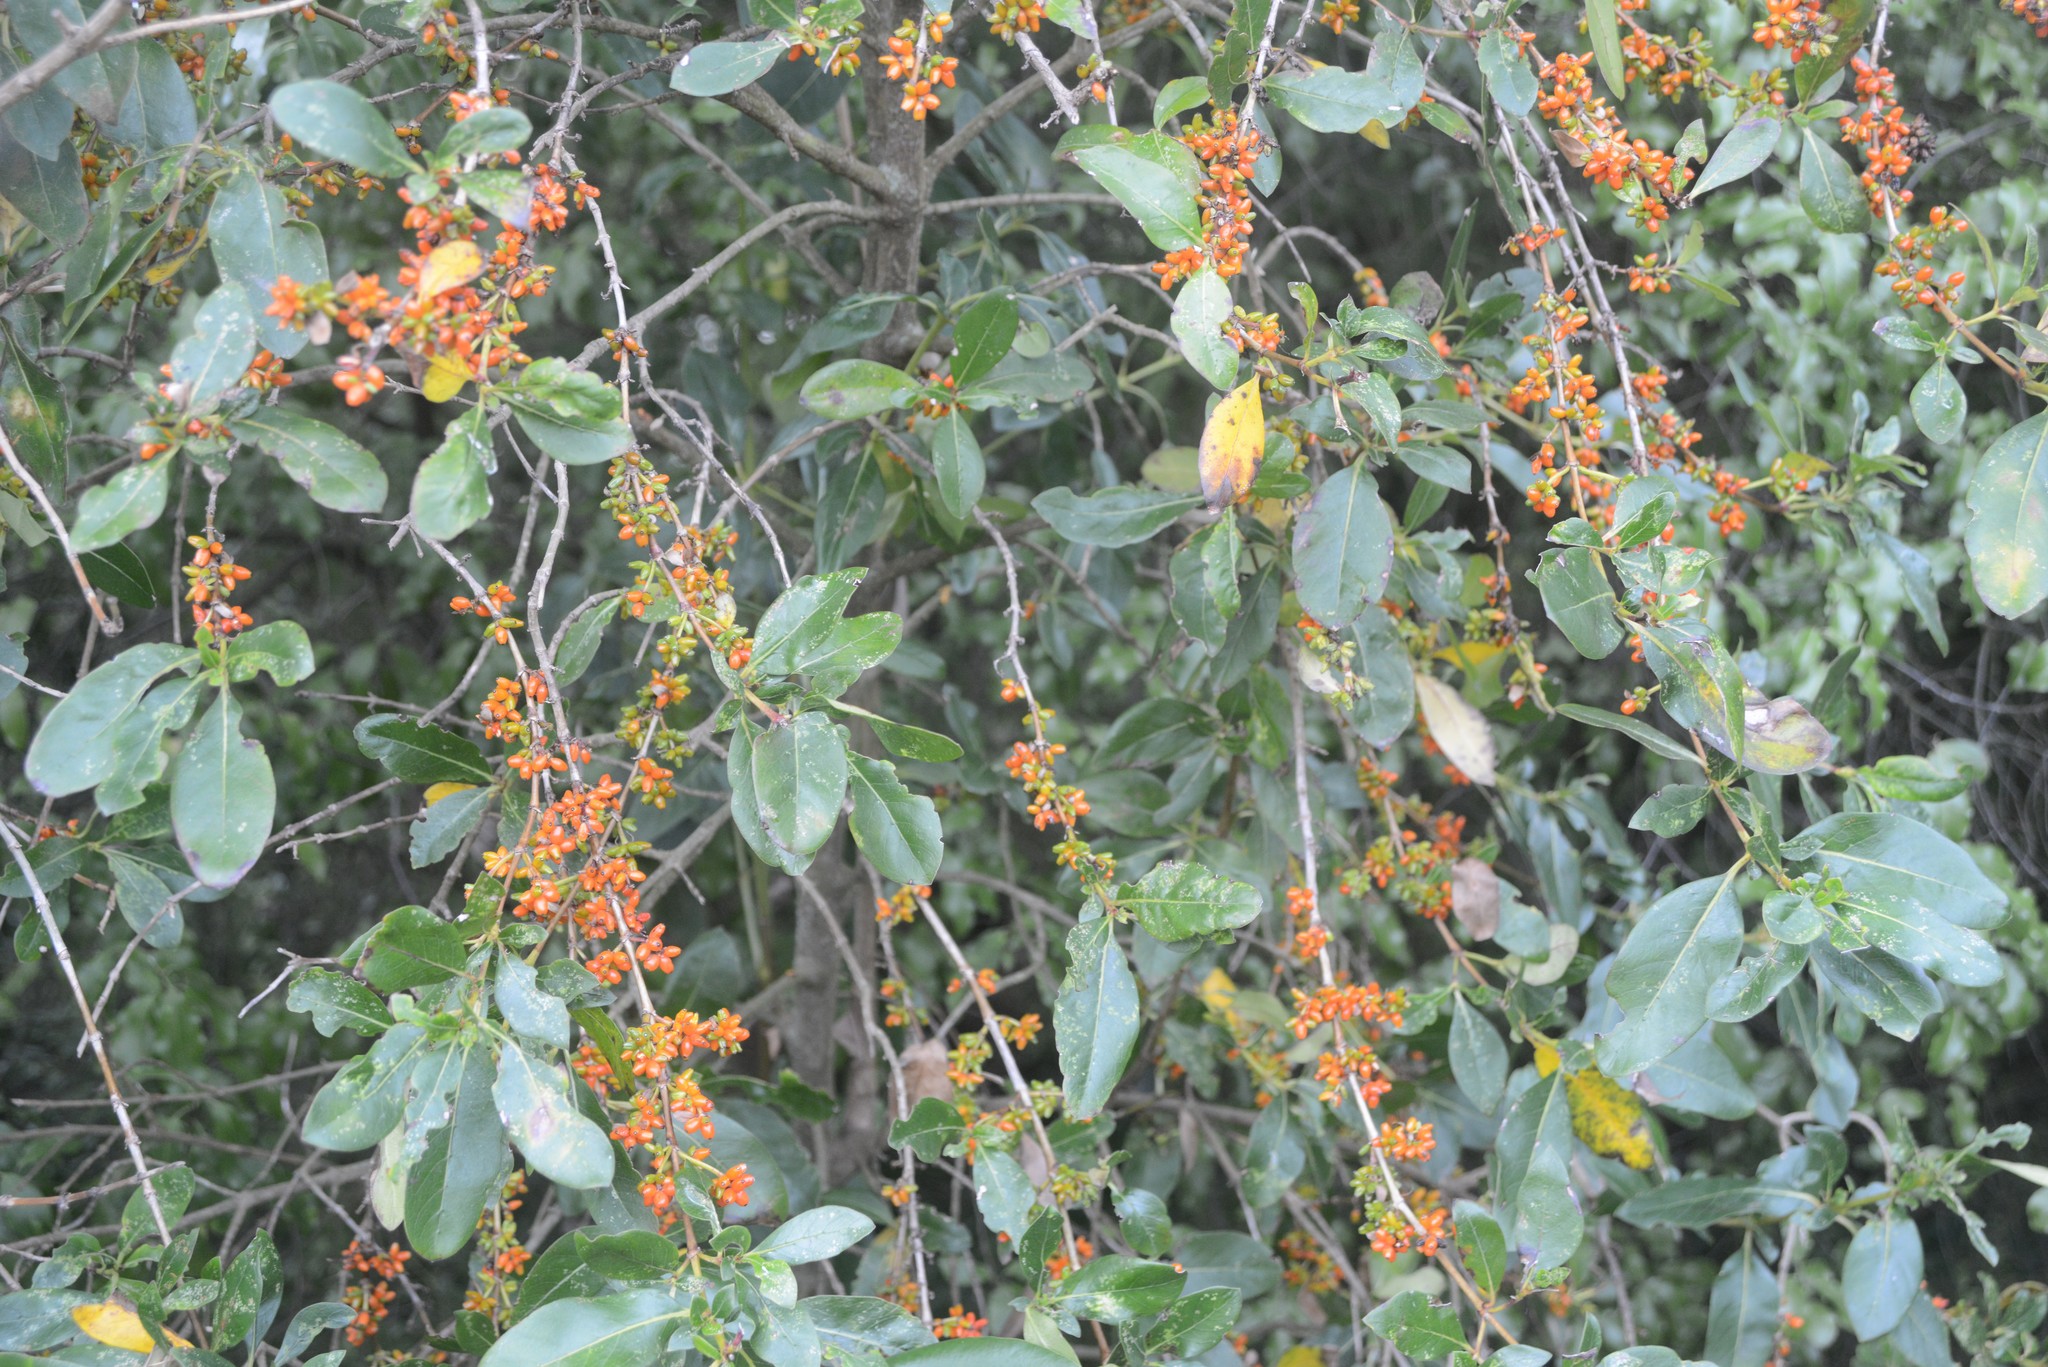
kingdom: Plantae
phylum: Tracheophyta
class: Magnoliopsida
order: Gentianales
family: Rubiaceae
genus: Coprosma
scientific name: Coprosma robusta
